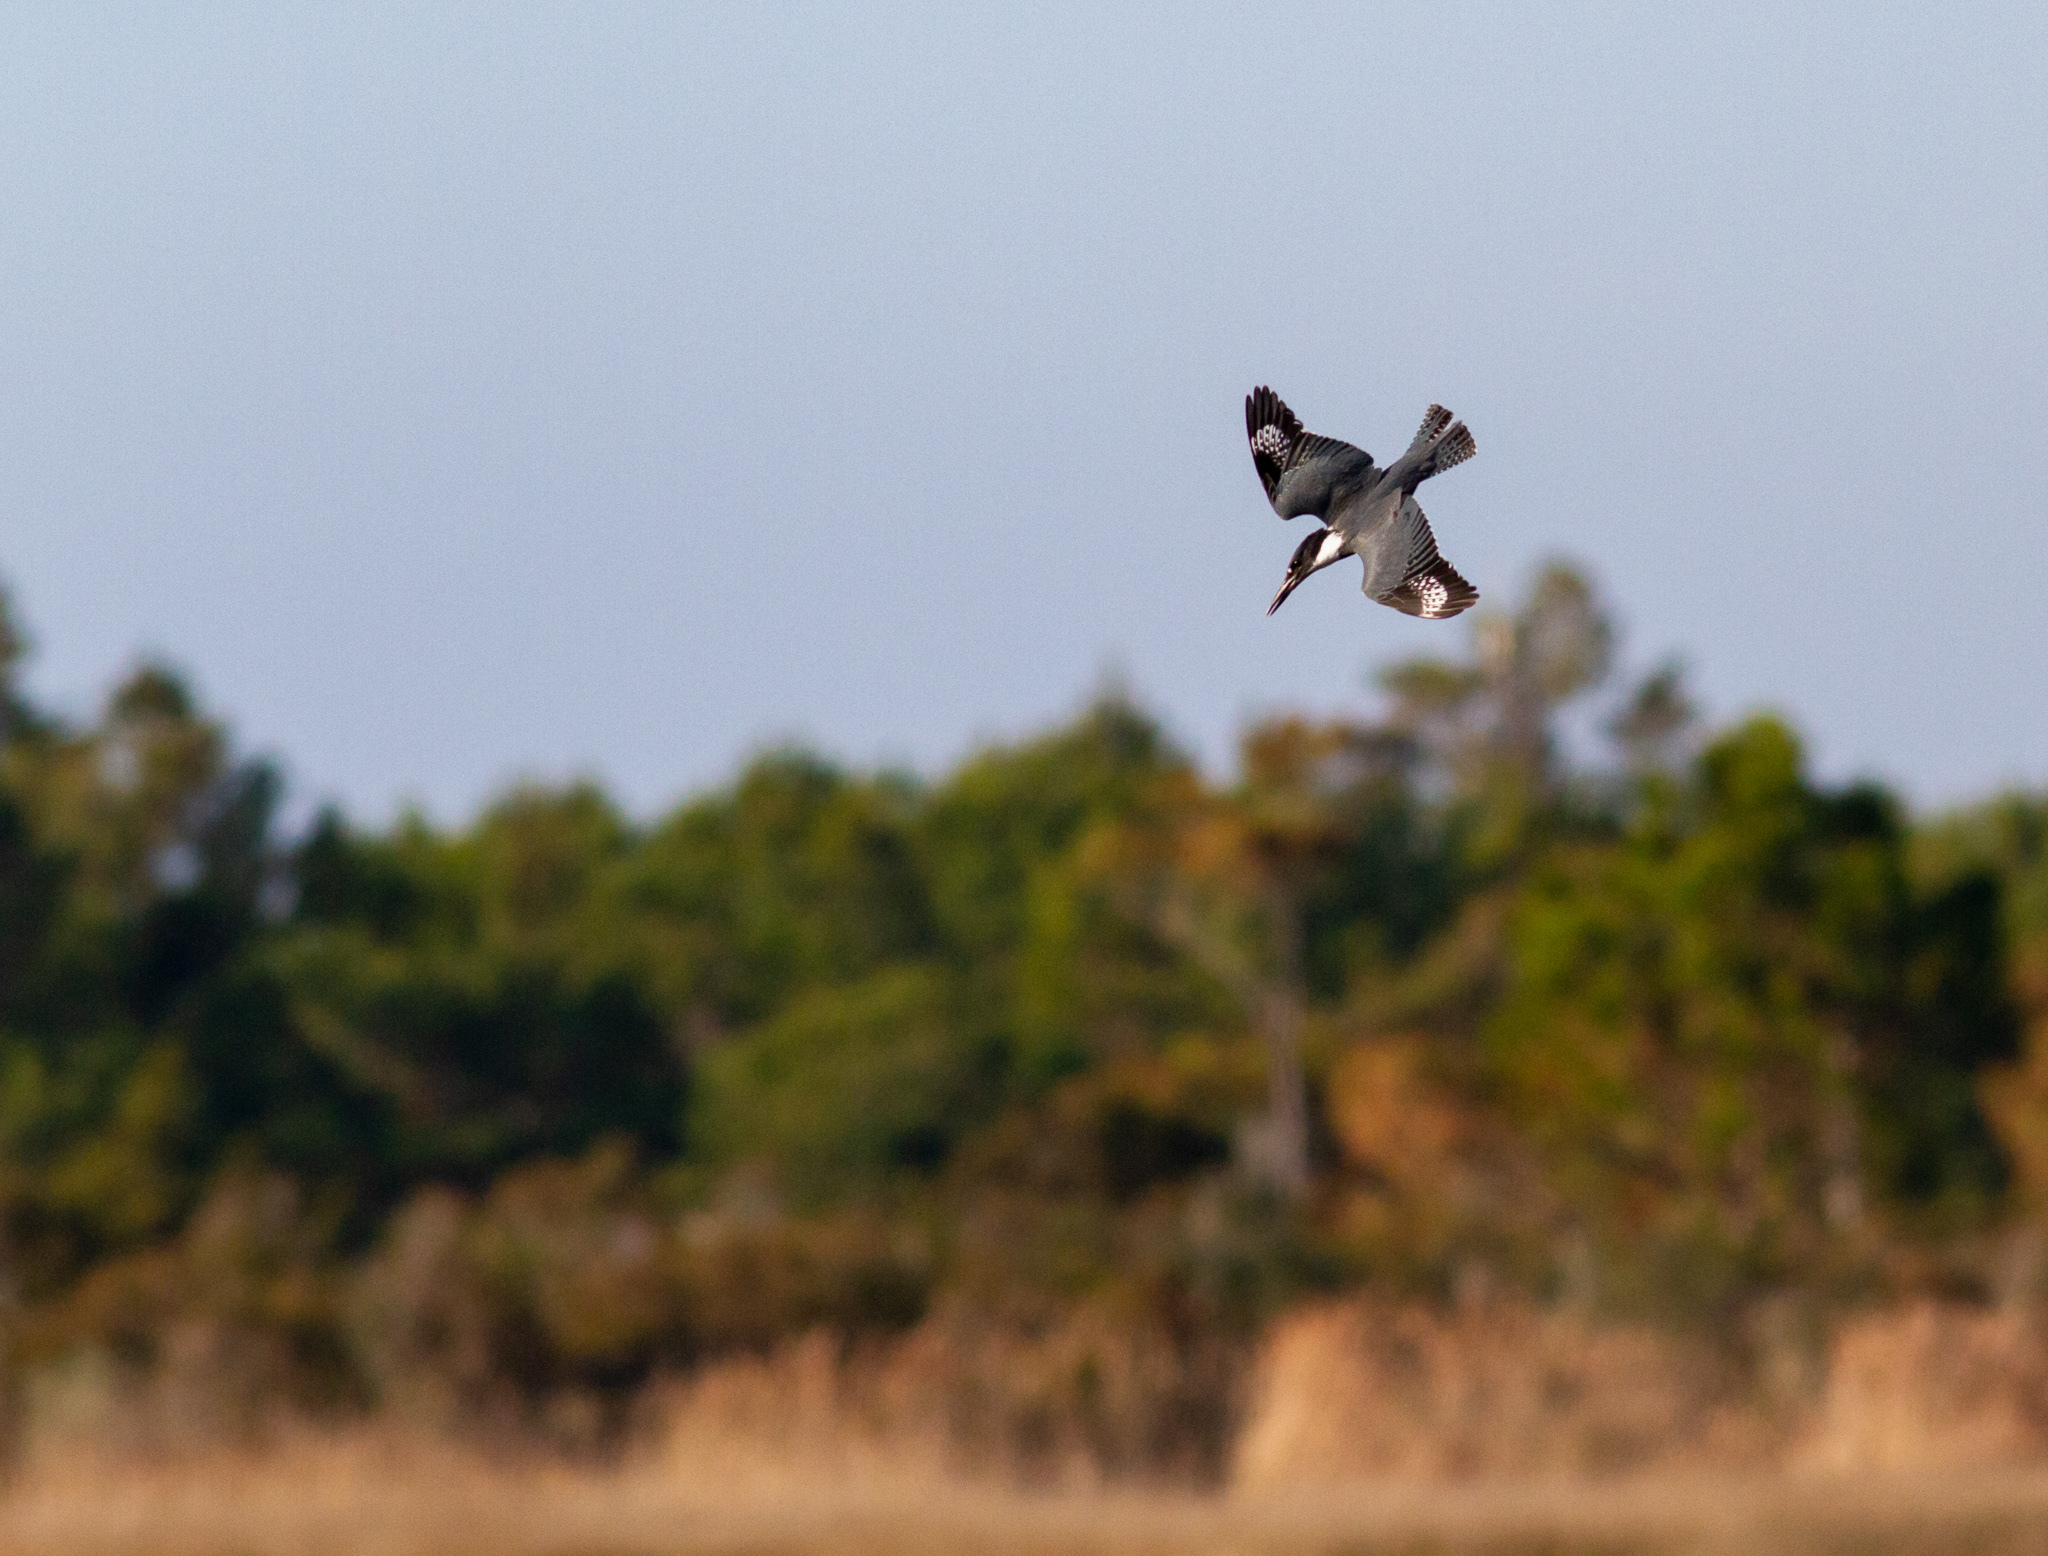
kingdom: Animalia
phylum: Chordata
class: Aves
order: Coraciiformes
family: Alcedinidae
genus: Megaceryle
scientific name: Megaceryle alcyon
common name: Belted kingfisher
